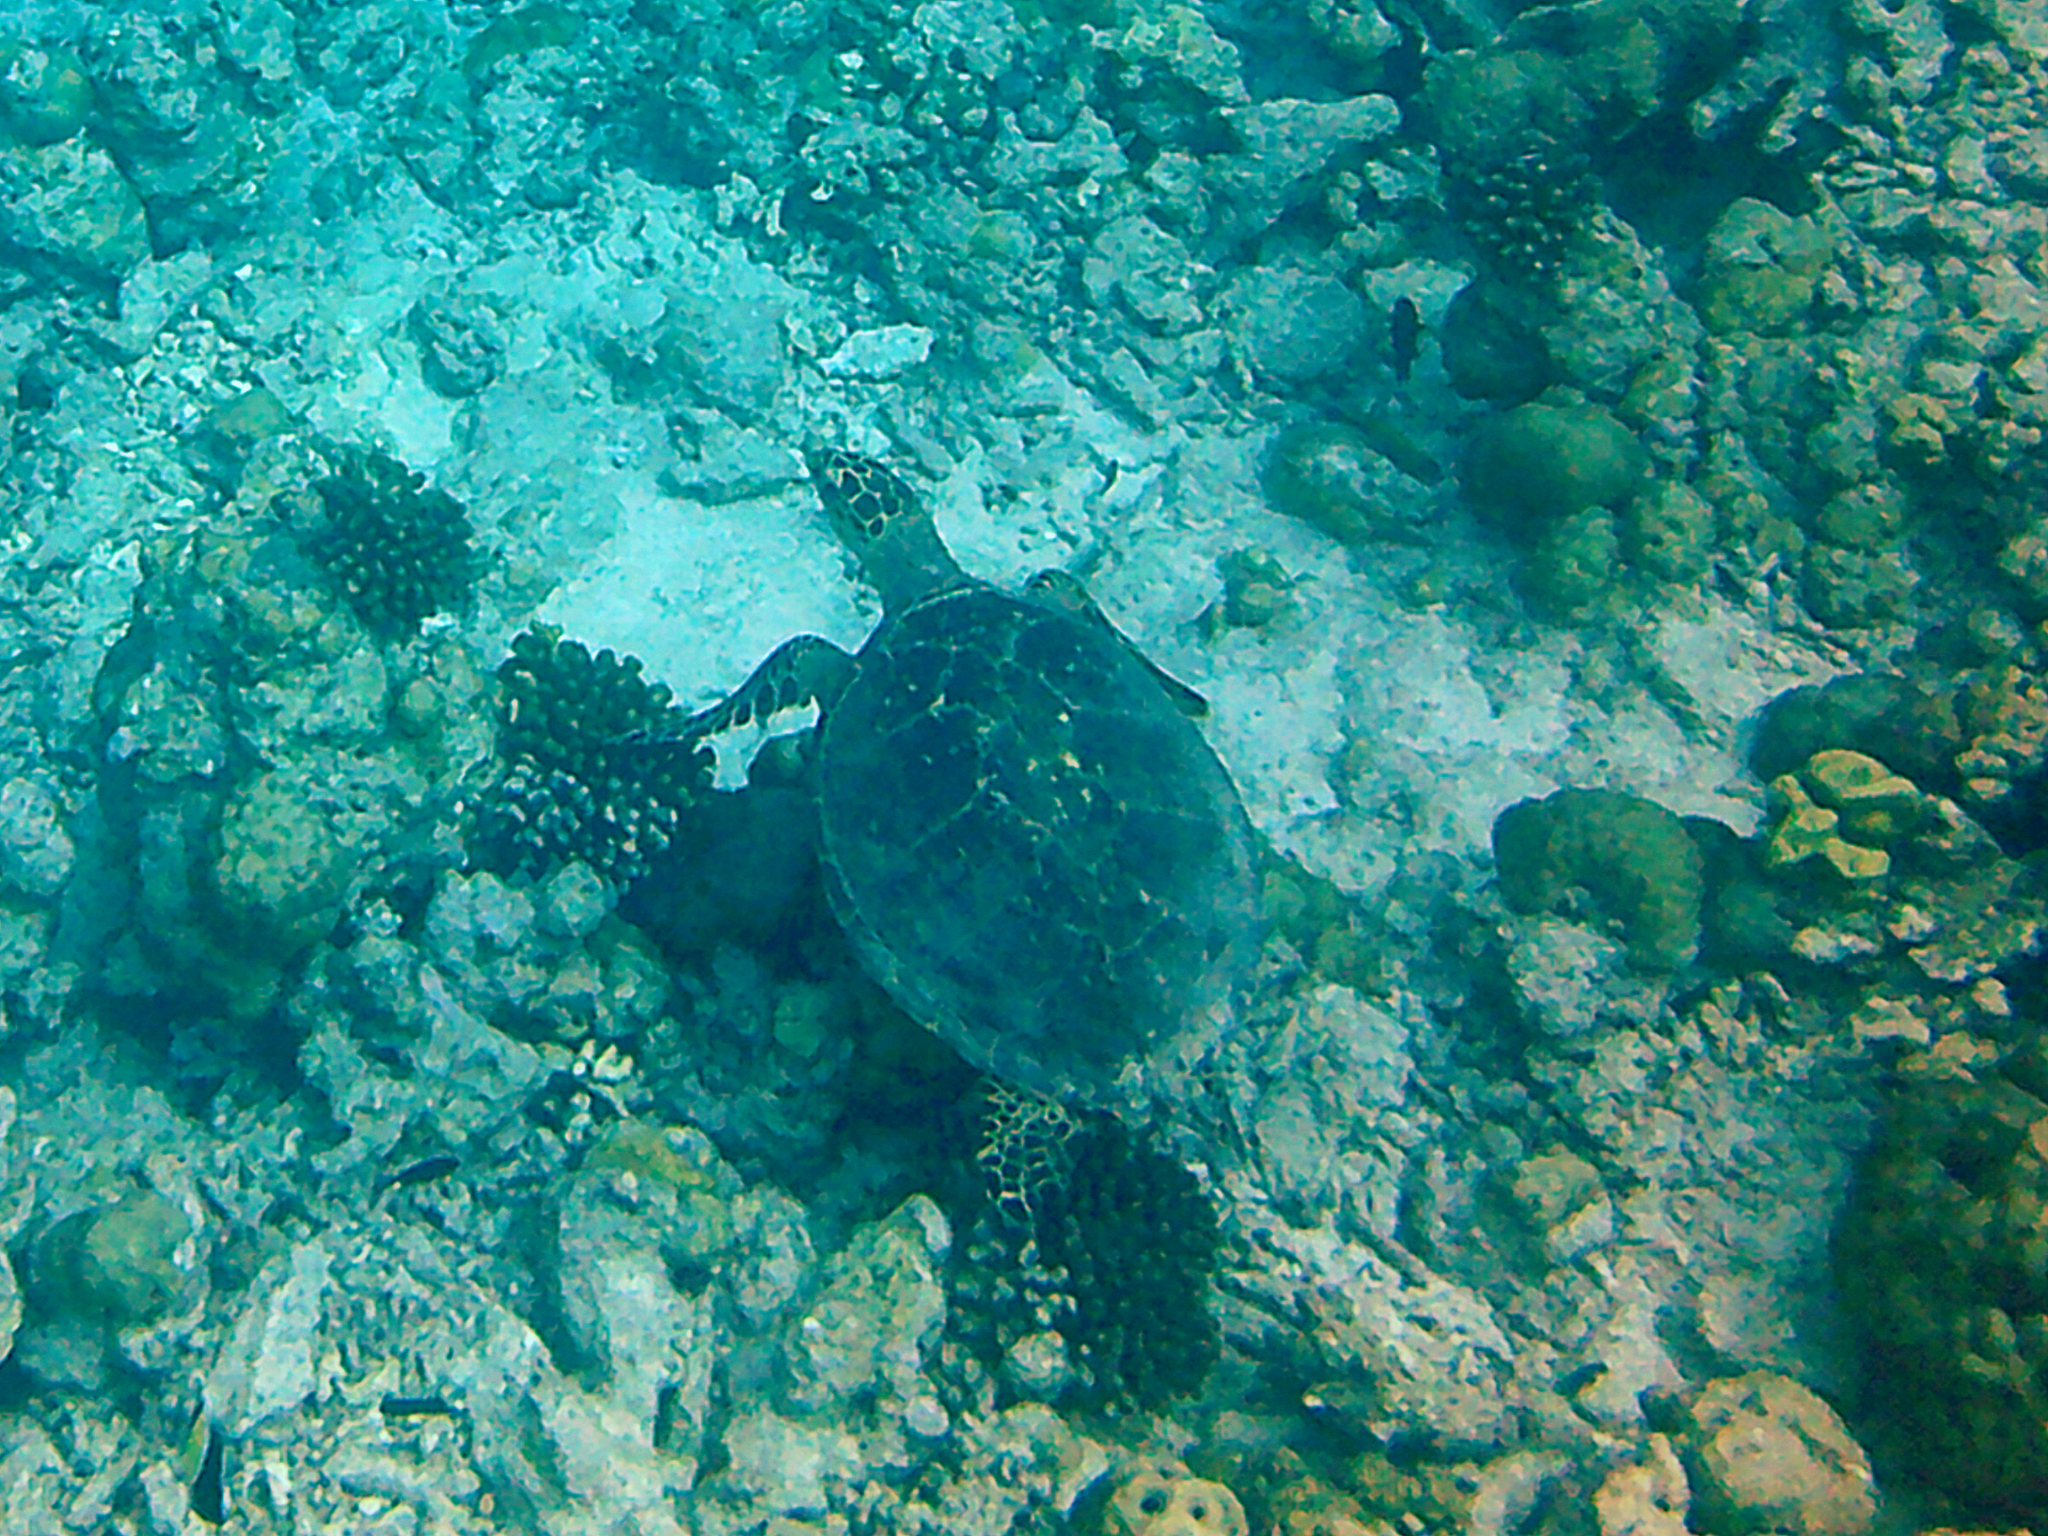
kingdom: Animalia
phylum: Chordata
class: Testudines
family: Cheloniidae
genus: Eretmochelys
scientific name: Eretmochelys imbricata
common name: Hawksbill turtle
